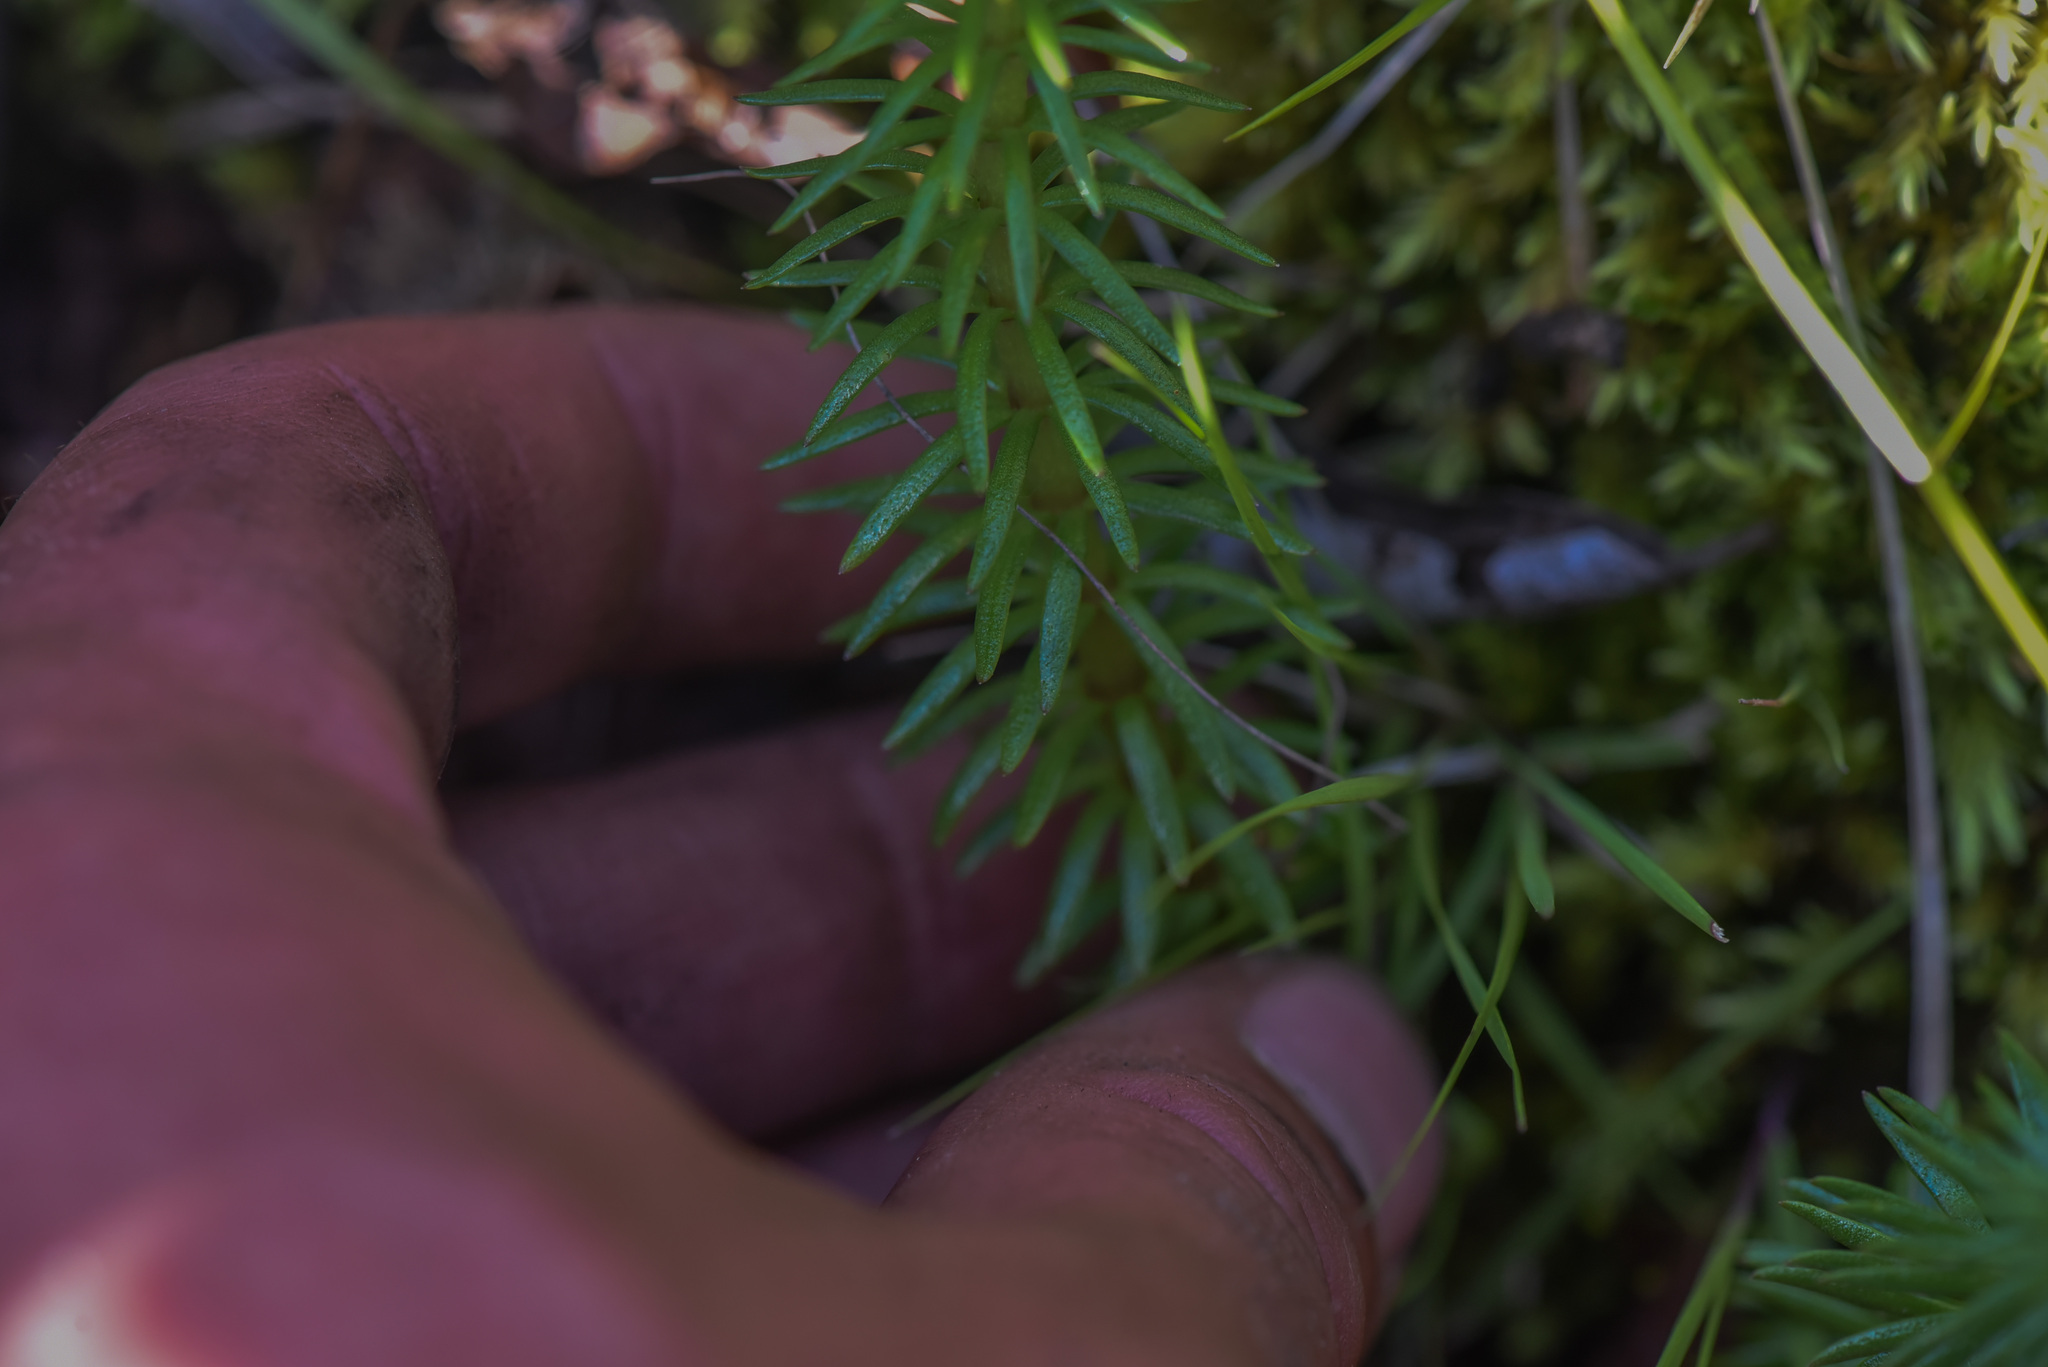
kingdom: Plantae
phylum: Tracheophyta
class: Magnoliopsida
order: Lamiales
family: Plantaginaceae
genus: Hippuris
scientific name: Hippuris vulgaris
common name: Mare's-tail
